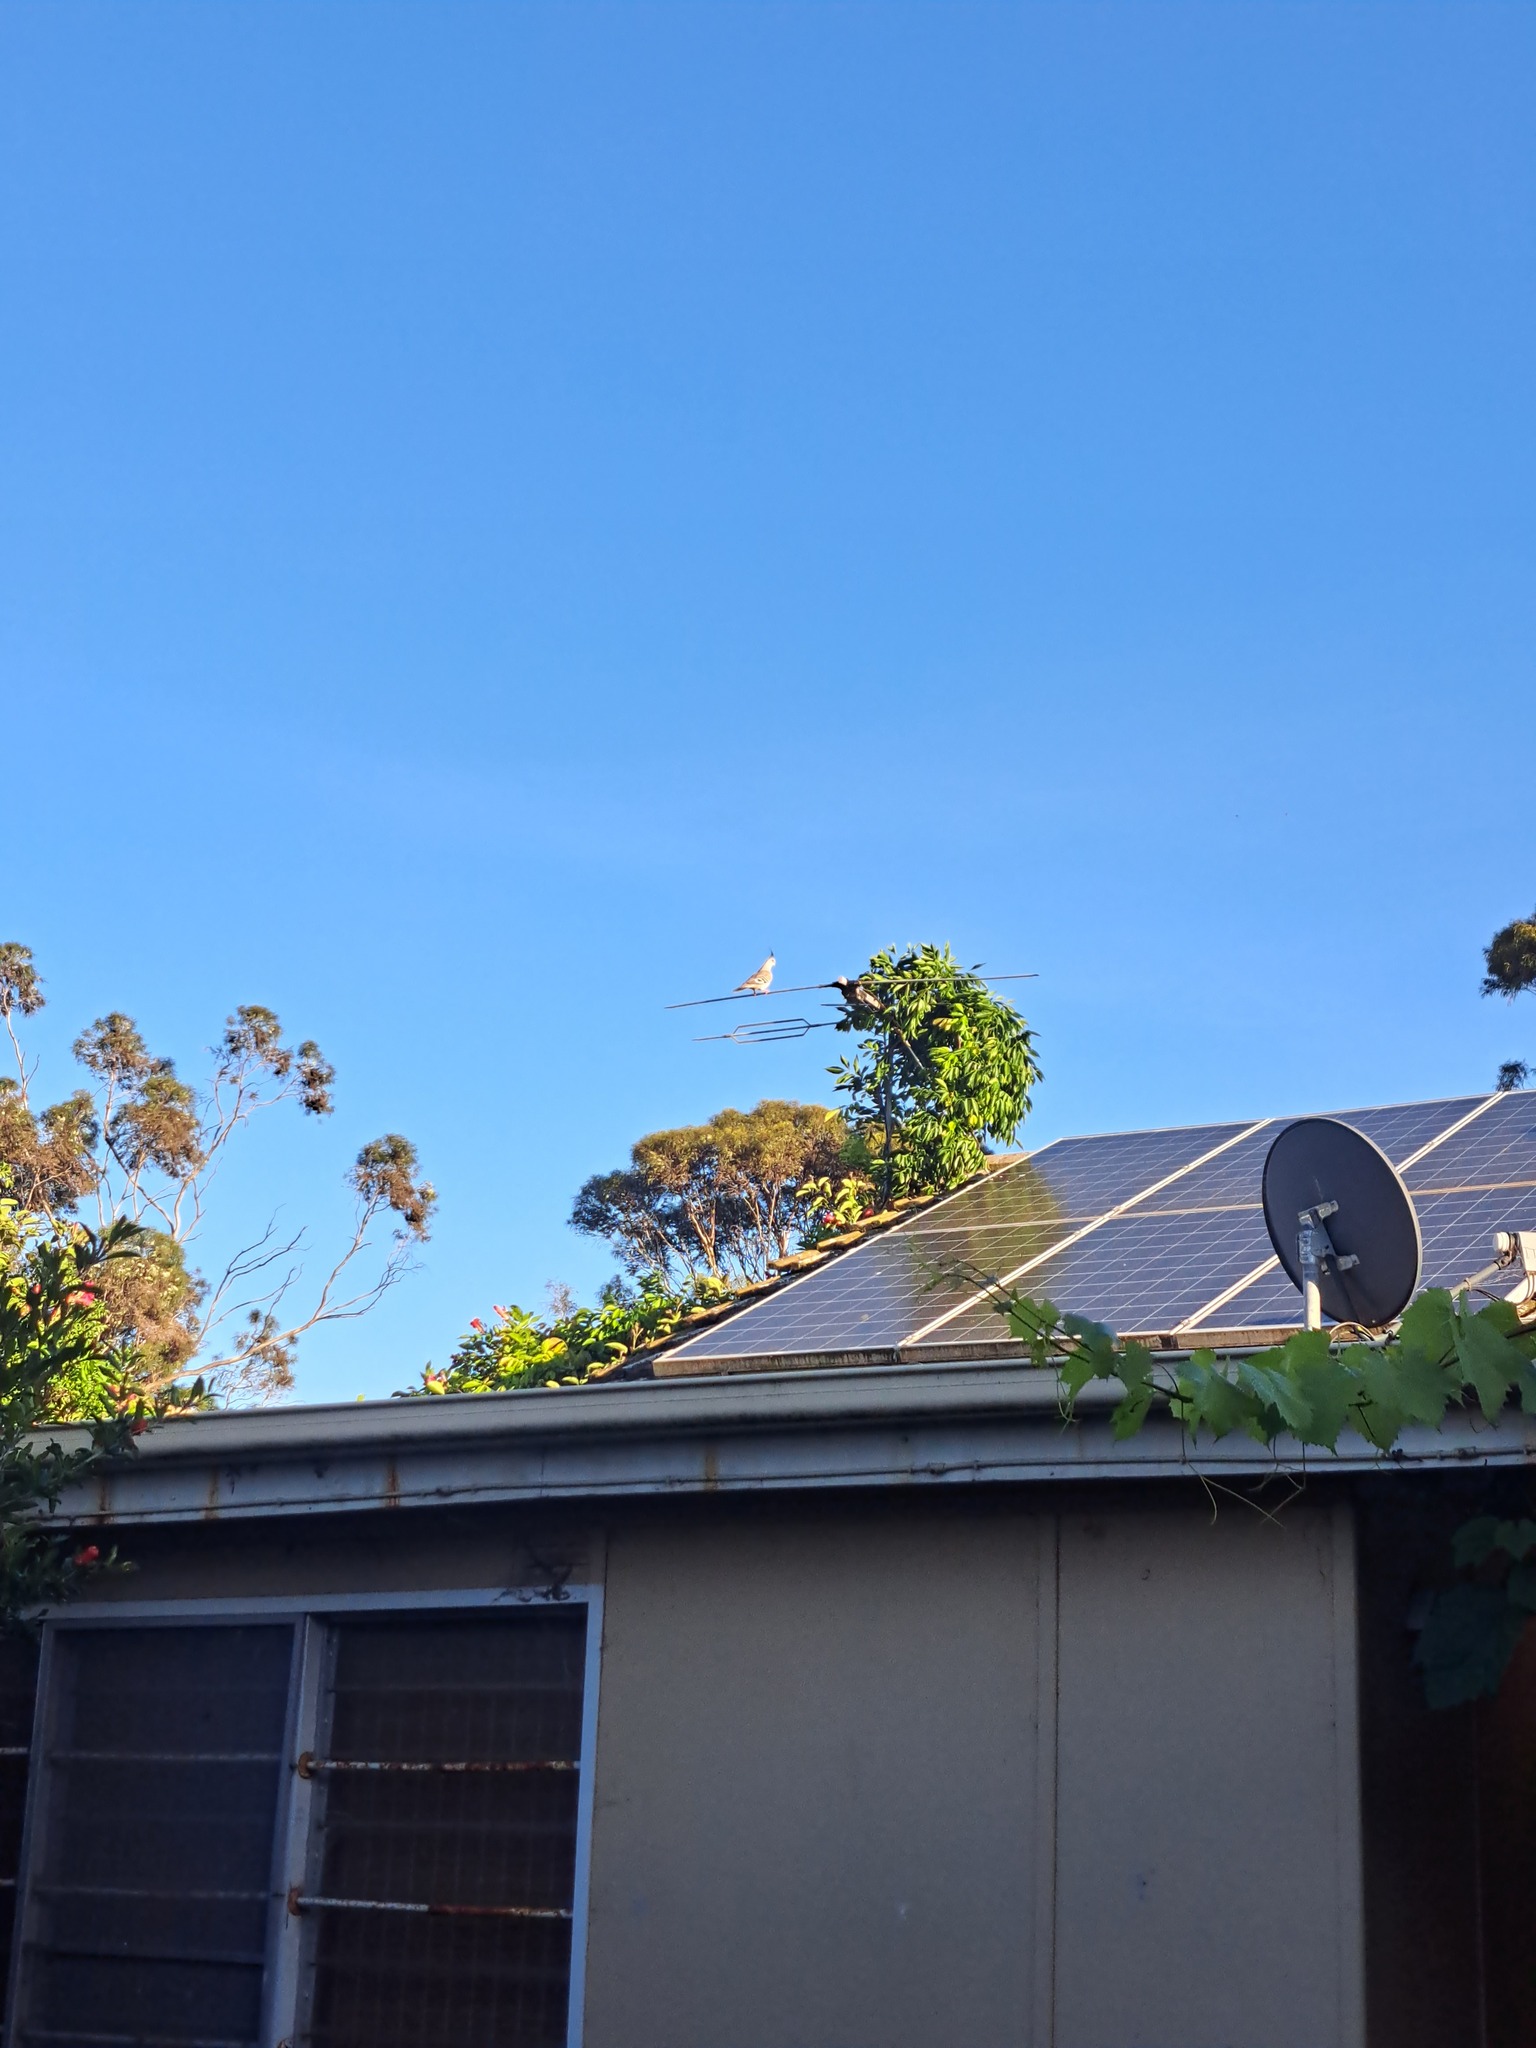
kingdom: Animalia
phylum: Chordata
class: Aves
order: Columbiformes
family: Columbidae
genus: Ocyphaps
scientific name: Ocyphaps lophotes
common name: Crested pigeon
